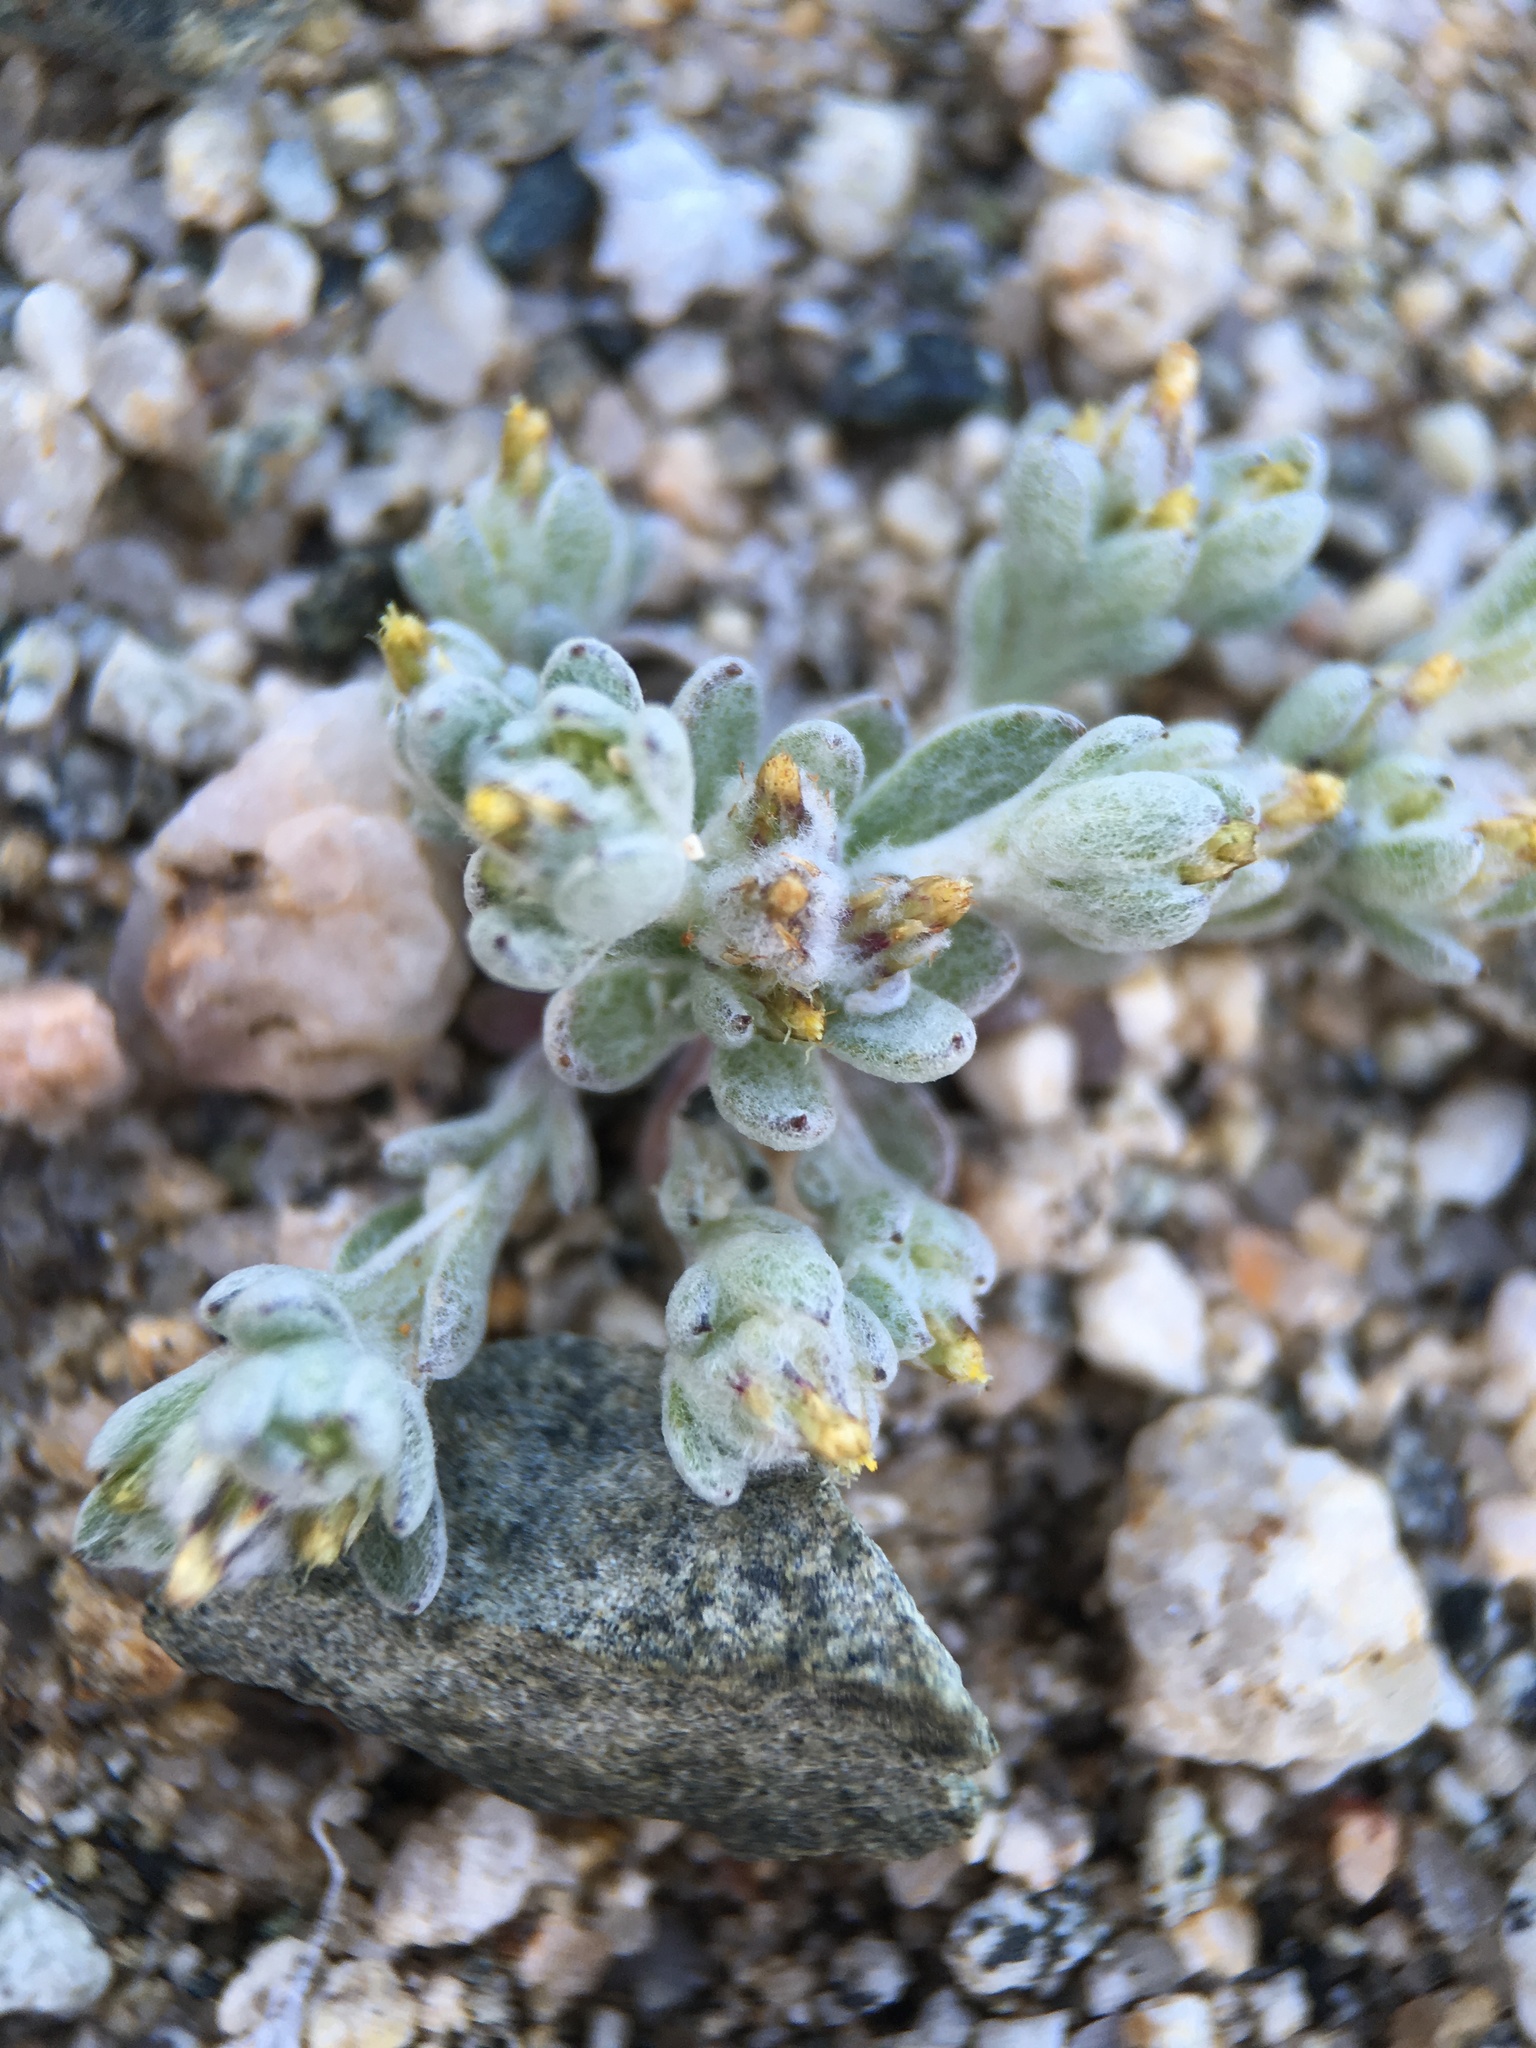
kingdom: Plantae
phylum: Tracheophyta
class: Magnoliopsida
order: Asterales
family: Asteraceae
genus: Logfia
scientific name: Logfia depressa
